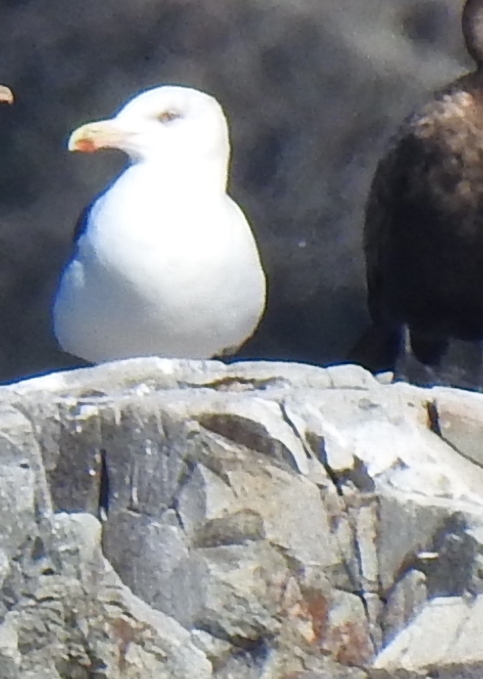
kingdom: Animalia
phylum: Chordata
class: Aves
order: Charadriiformes
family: Laridae
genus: Larus
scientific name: Larus marinus
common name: Great black-backed gull
